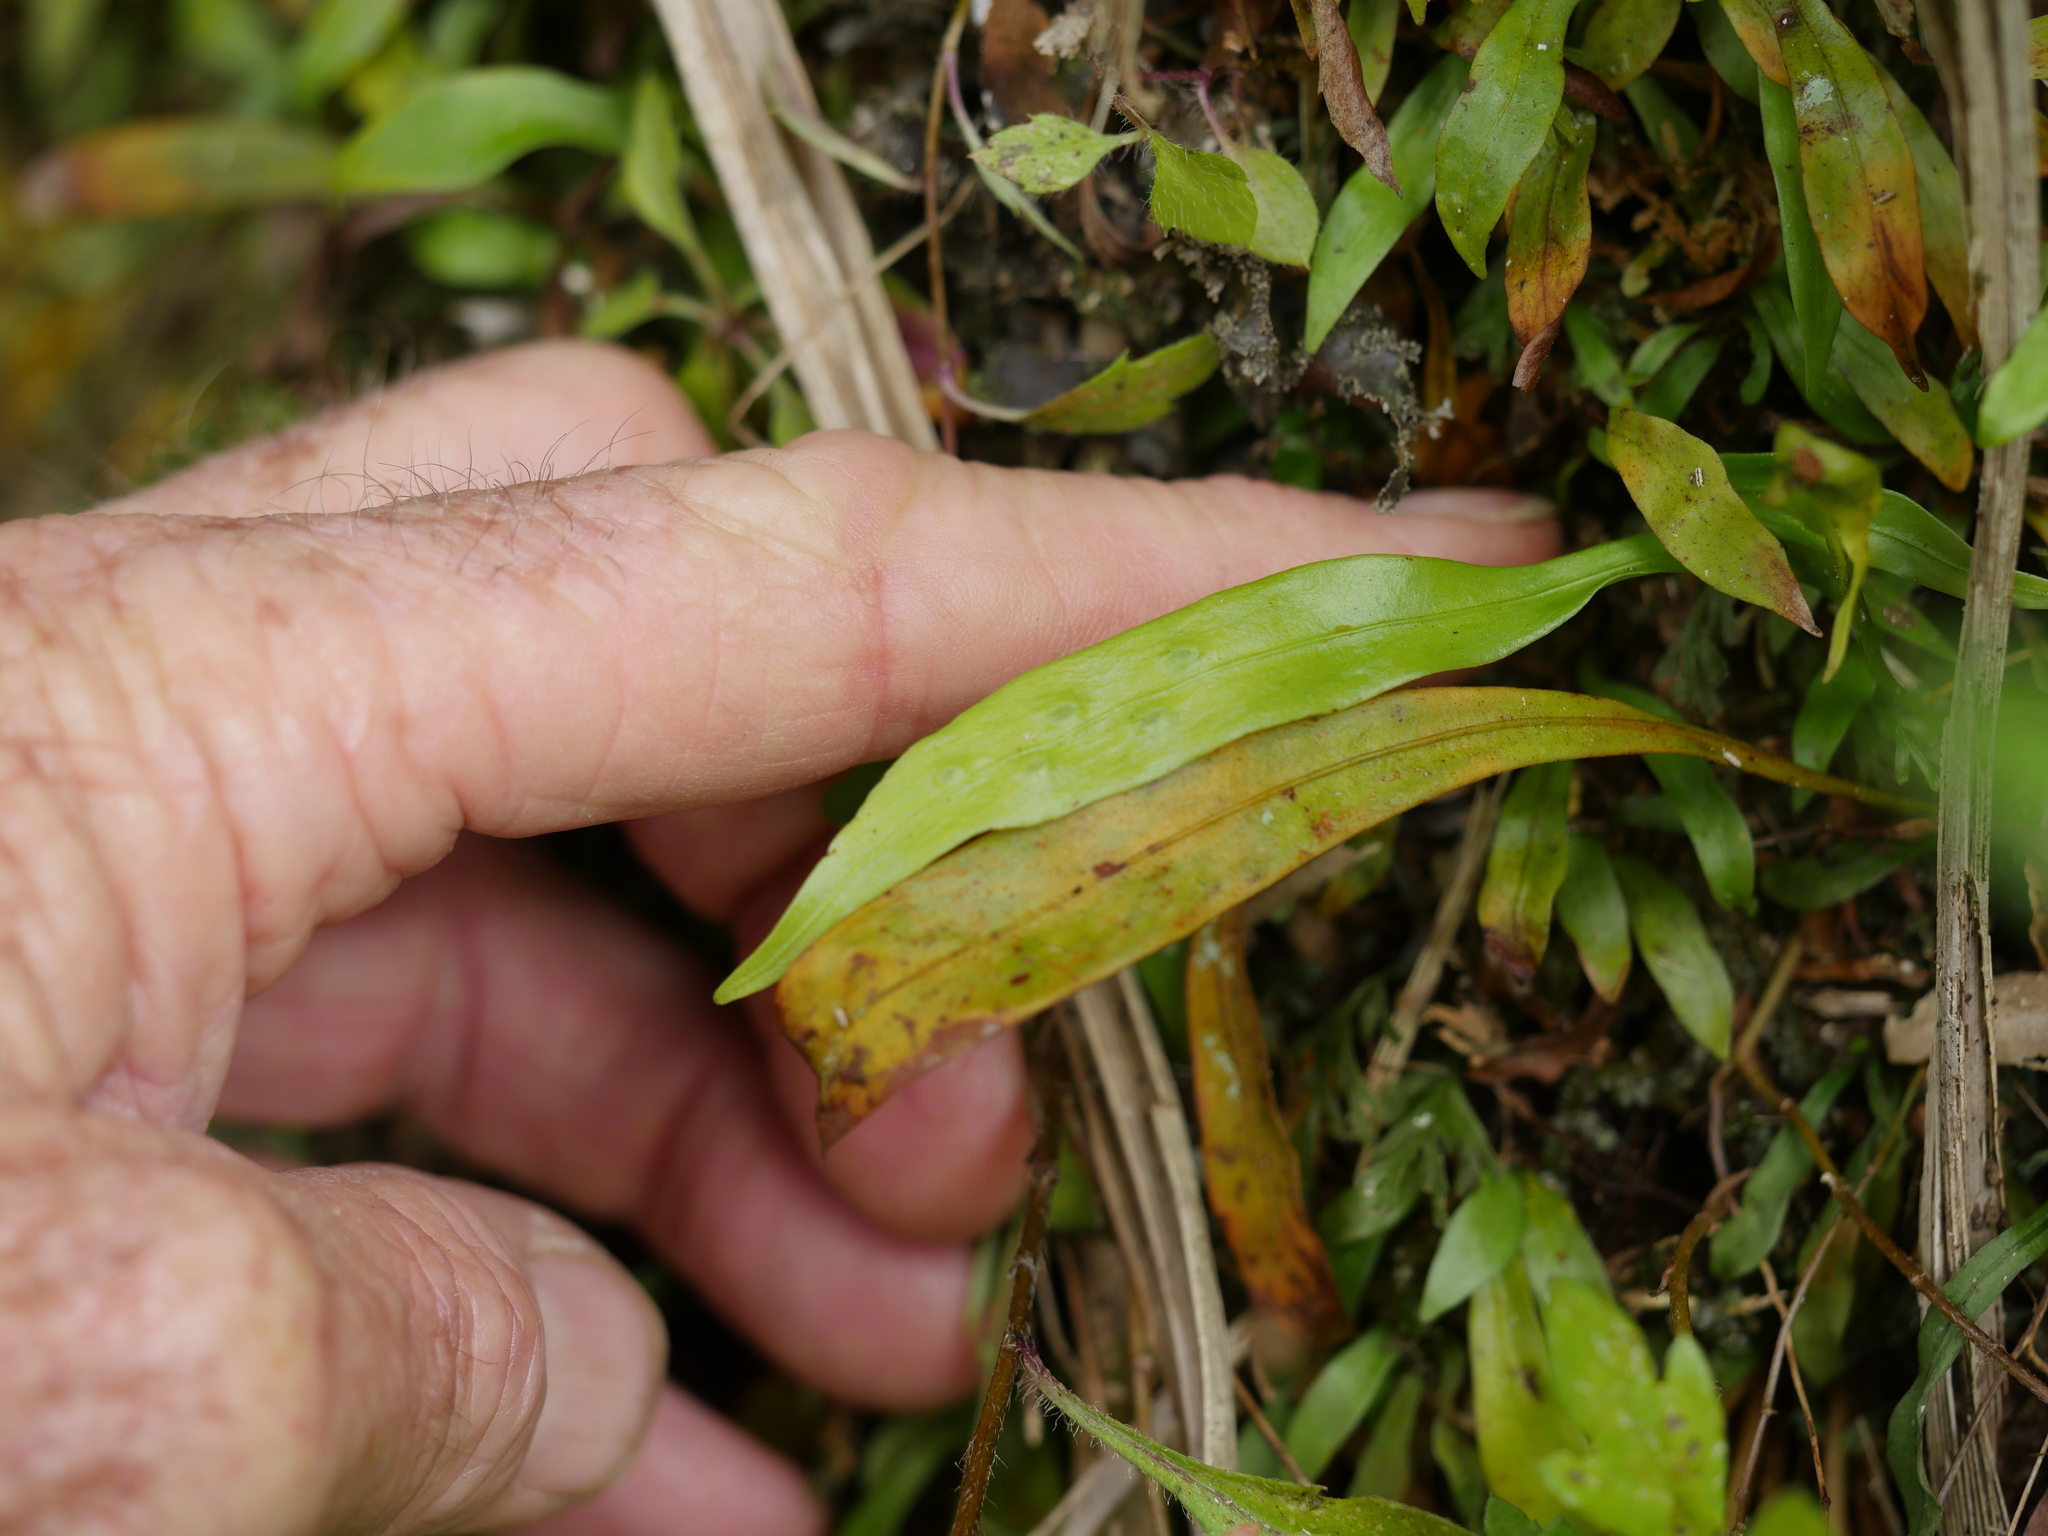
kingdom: Plantae
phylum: Tracheophyta
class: Polypodiopsida
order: Polypodiales
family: Polypodiaceae
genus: Loxogramme
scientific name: Loxogramme dictyopteris
